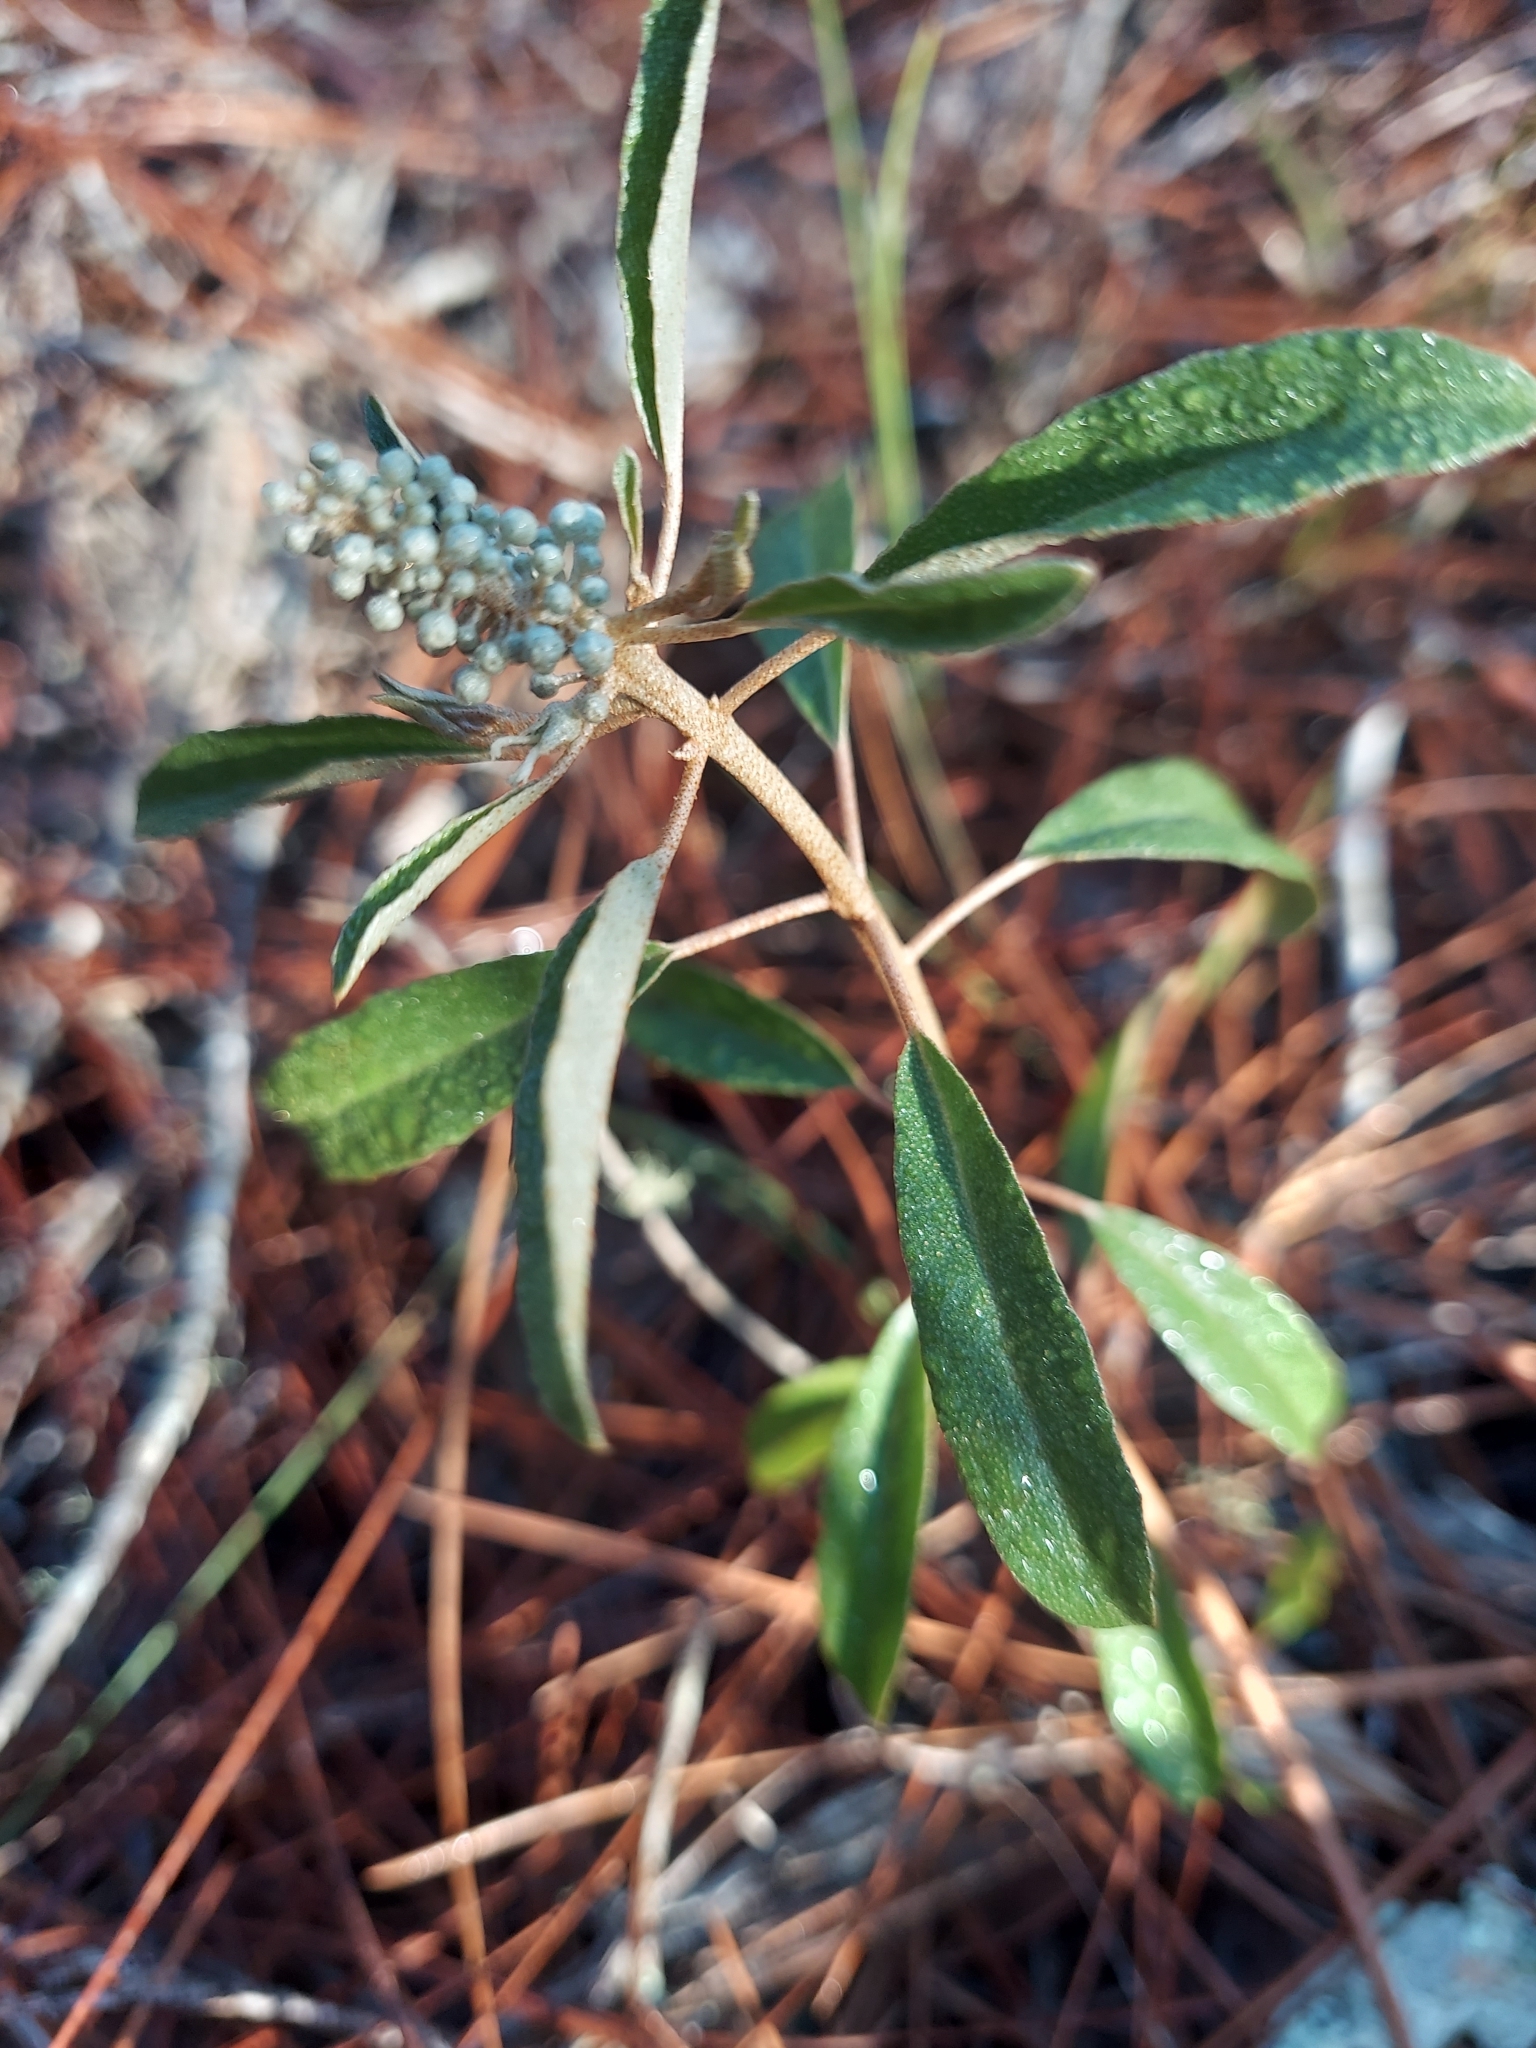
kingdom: Plantae
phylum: Tracheophyta
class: Magnoliopsida
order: Malpighiales
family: Euphorbiaceae
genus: Croton
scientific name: Croton argyranthemus
